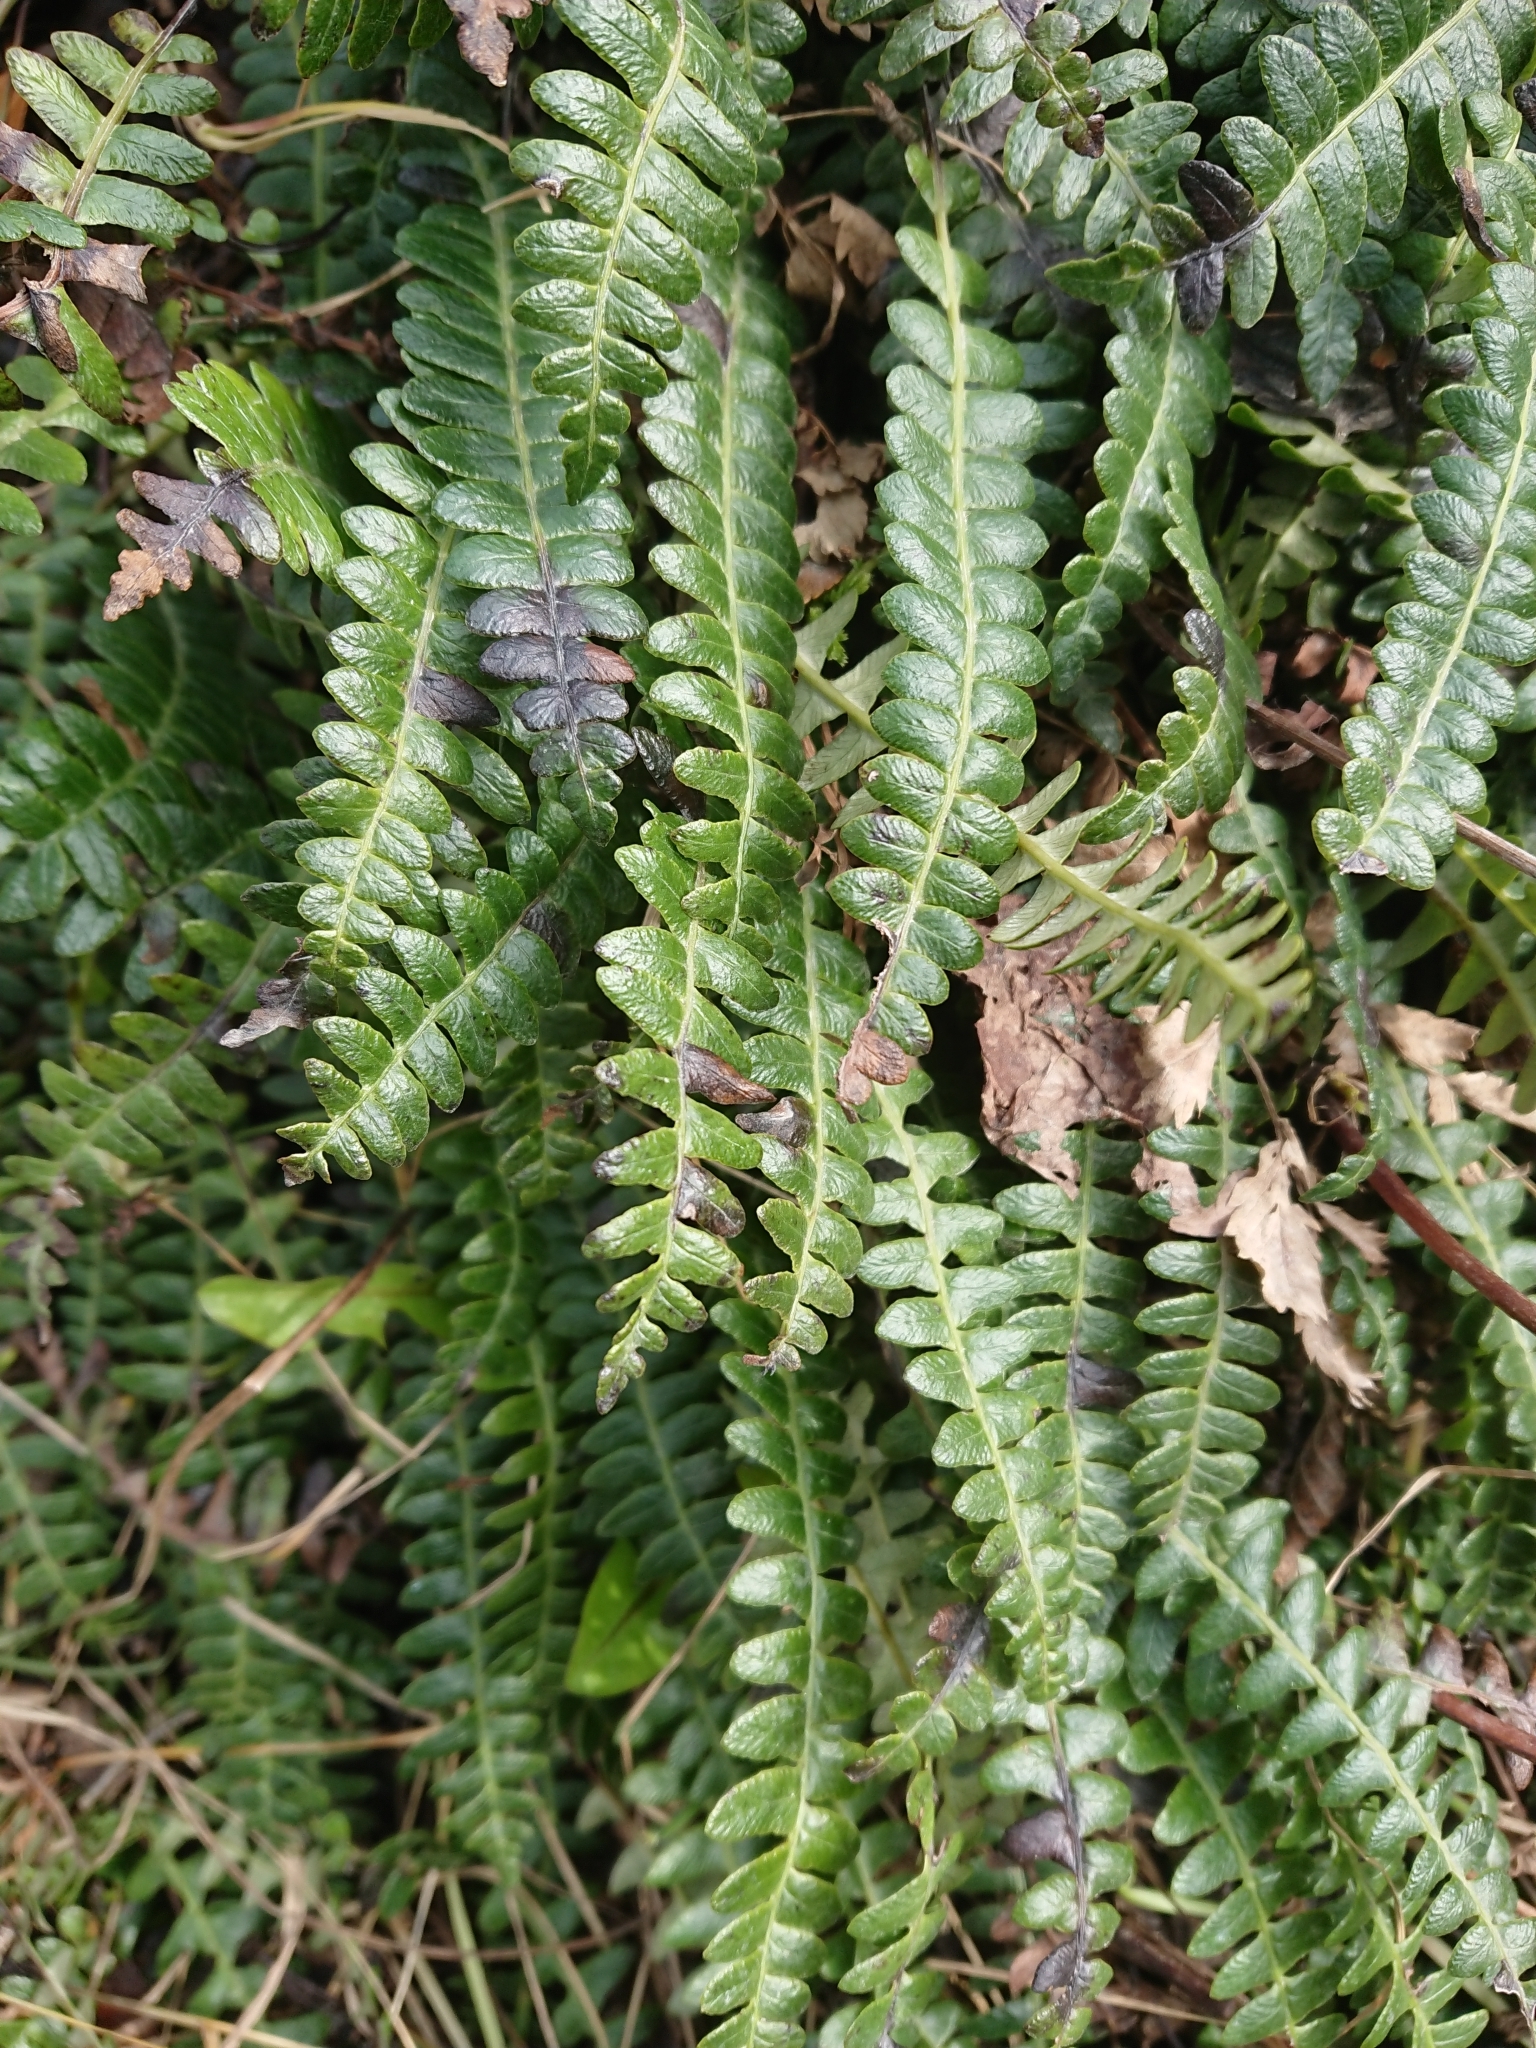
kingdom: Plantae
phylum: Tracheophyta
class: Polypodiopsida
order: Polypodiales
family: Blechnaceae
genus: Austroblechnum
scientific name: Austroblechnum penna-marina
